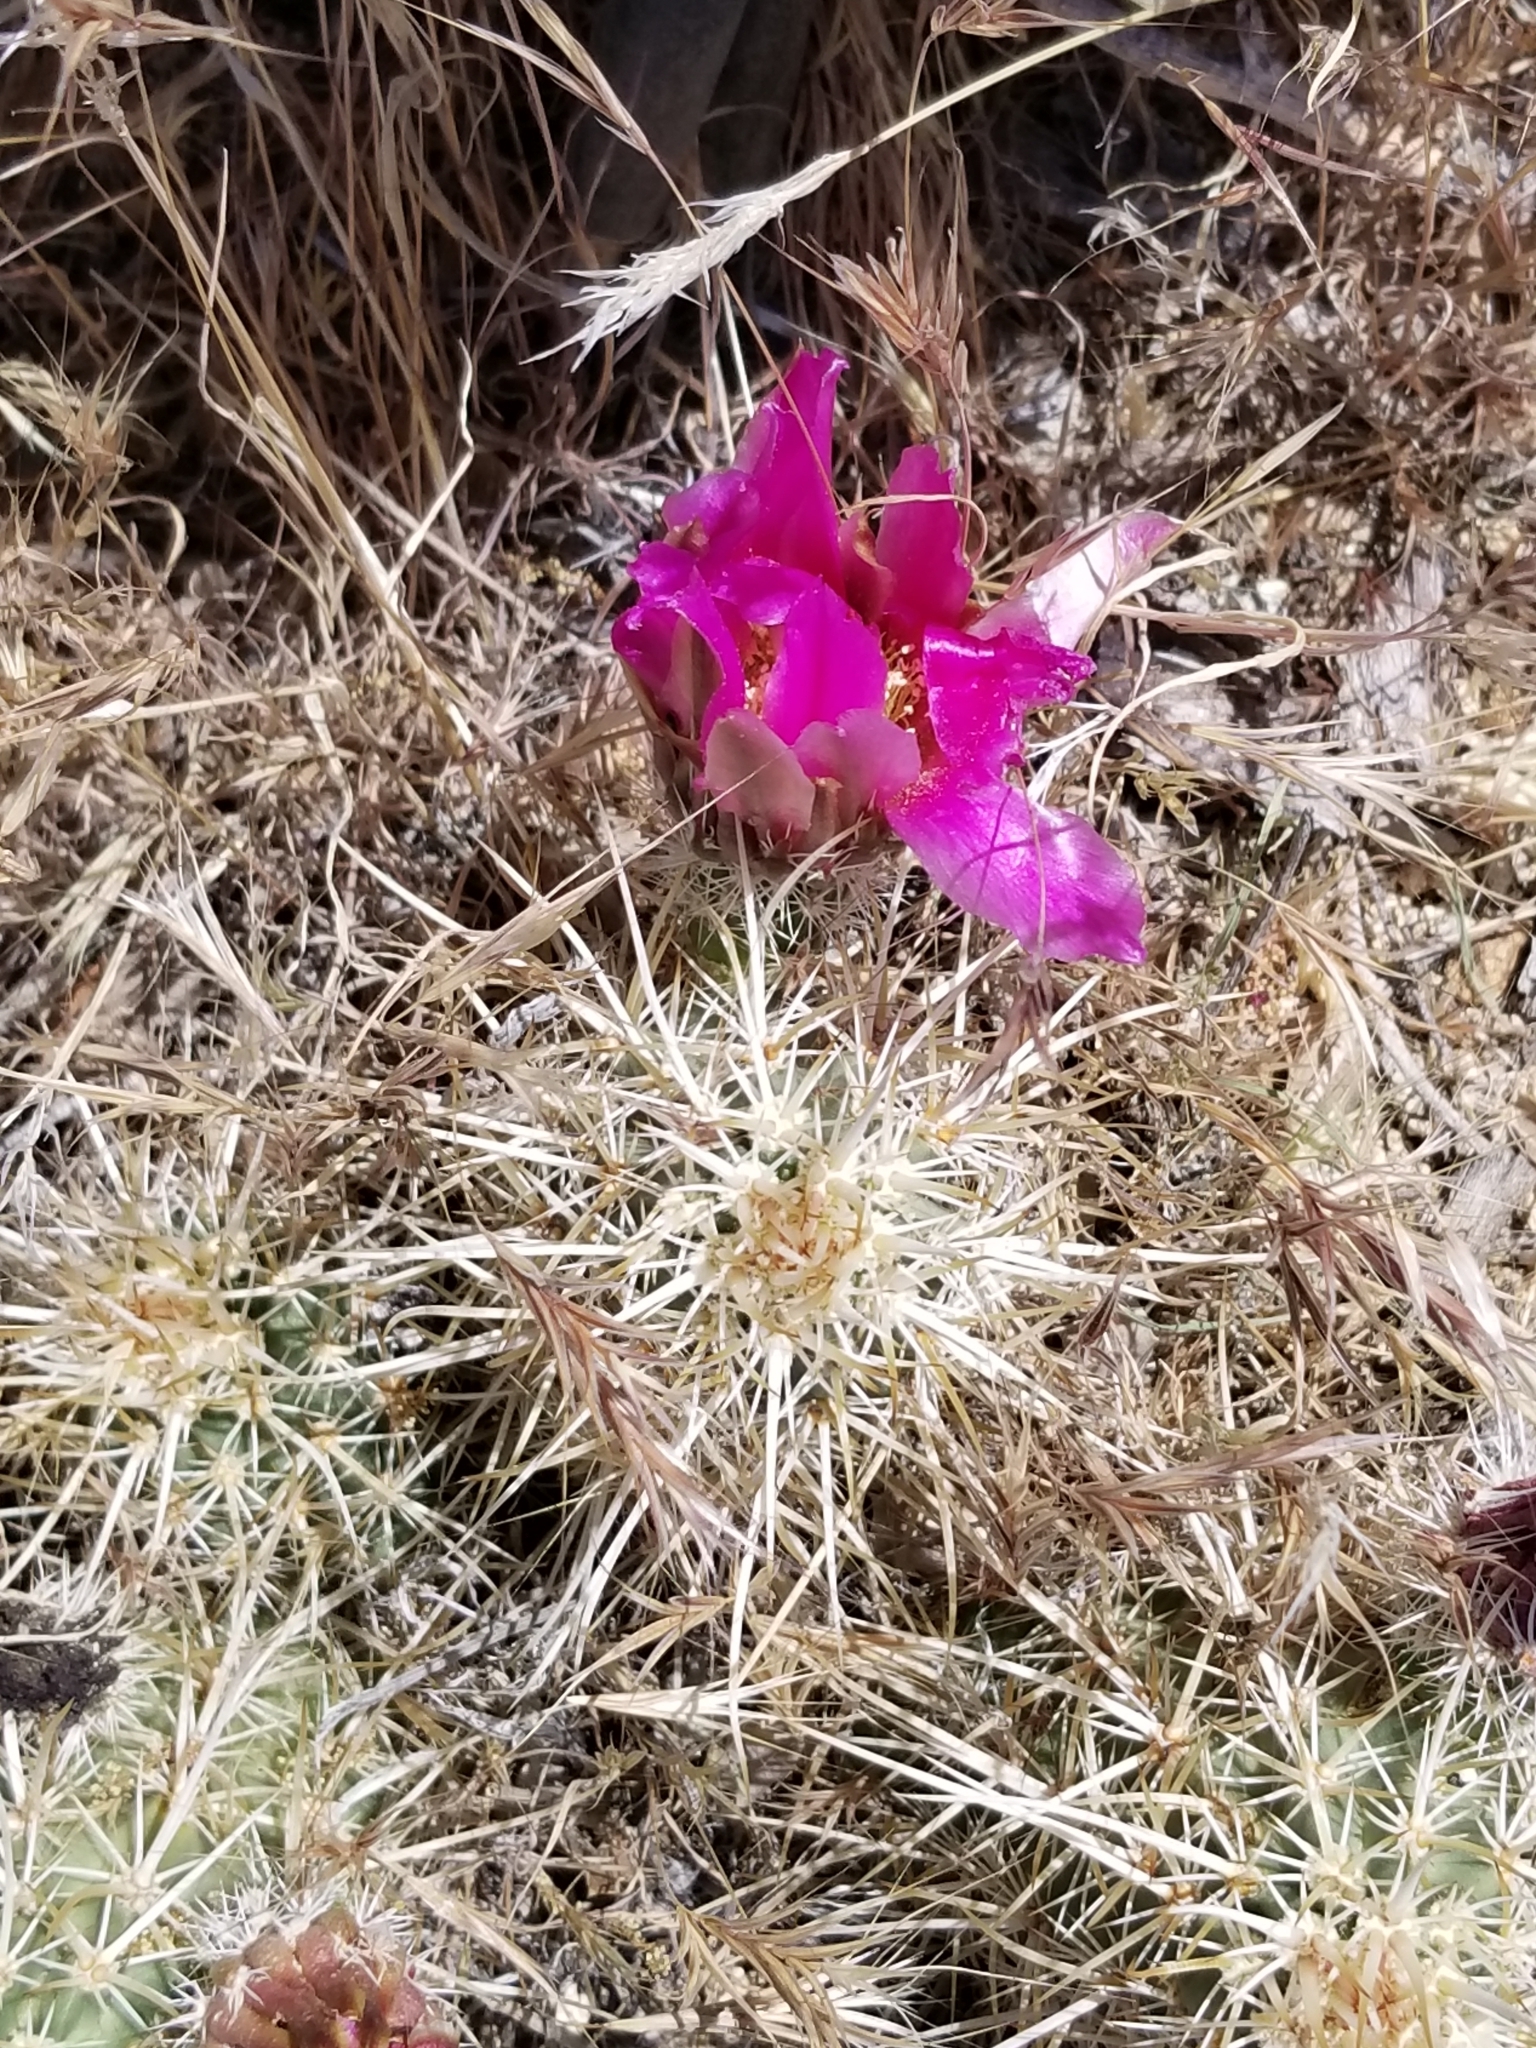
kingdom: Plantae
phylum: Tracheophyta
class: Magnoliopsida
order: Caryophyllales
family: Cactaceae
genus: Echinocereus
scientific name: Echinocereus engelmannii
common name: Engelmann's hedgehog cactus
